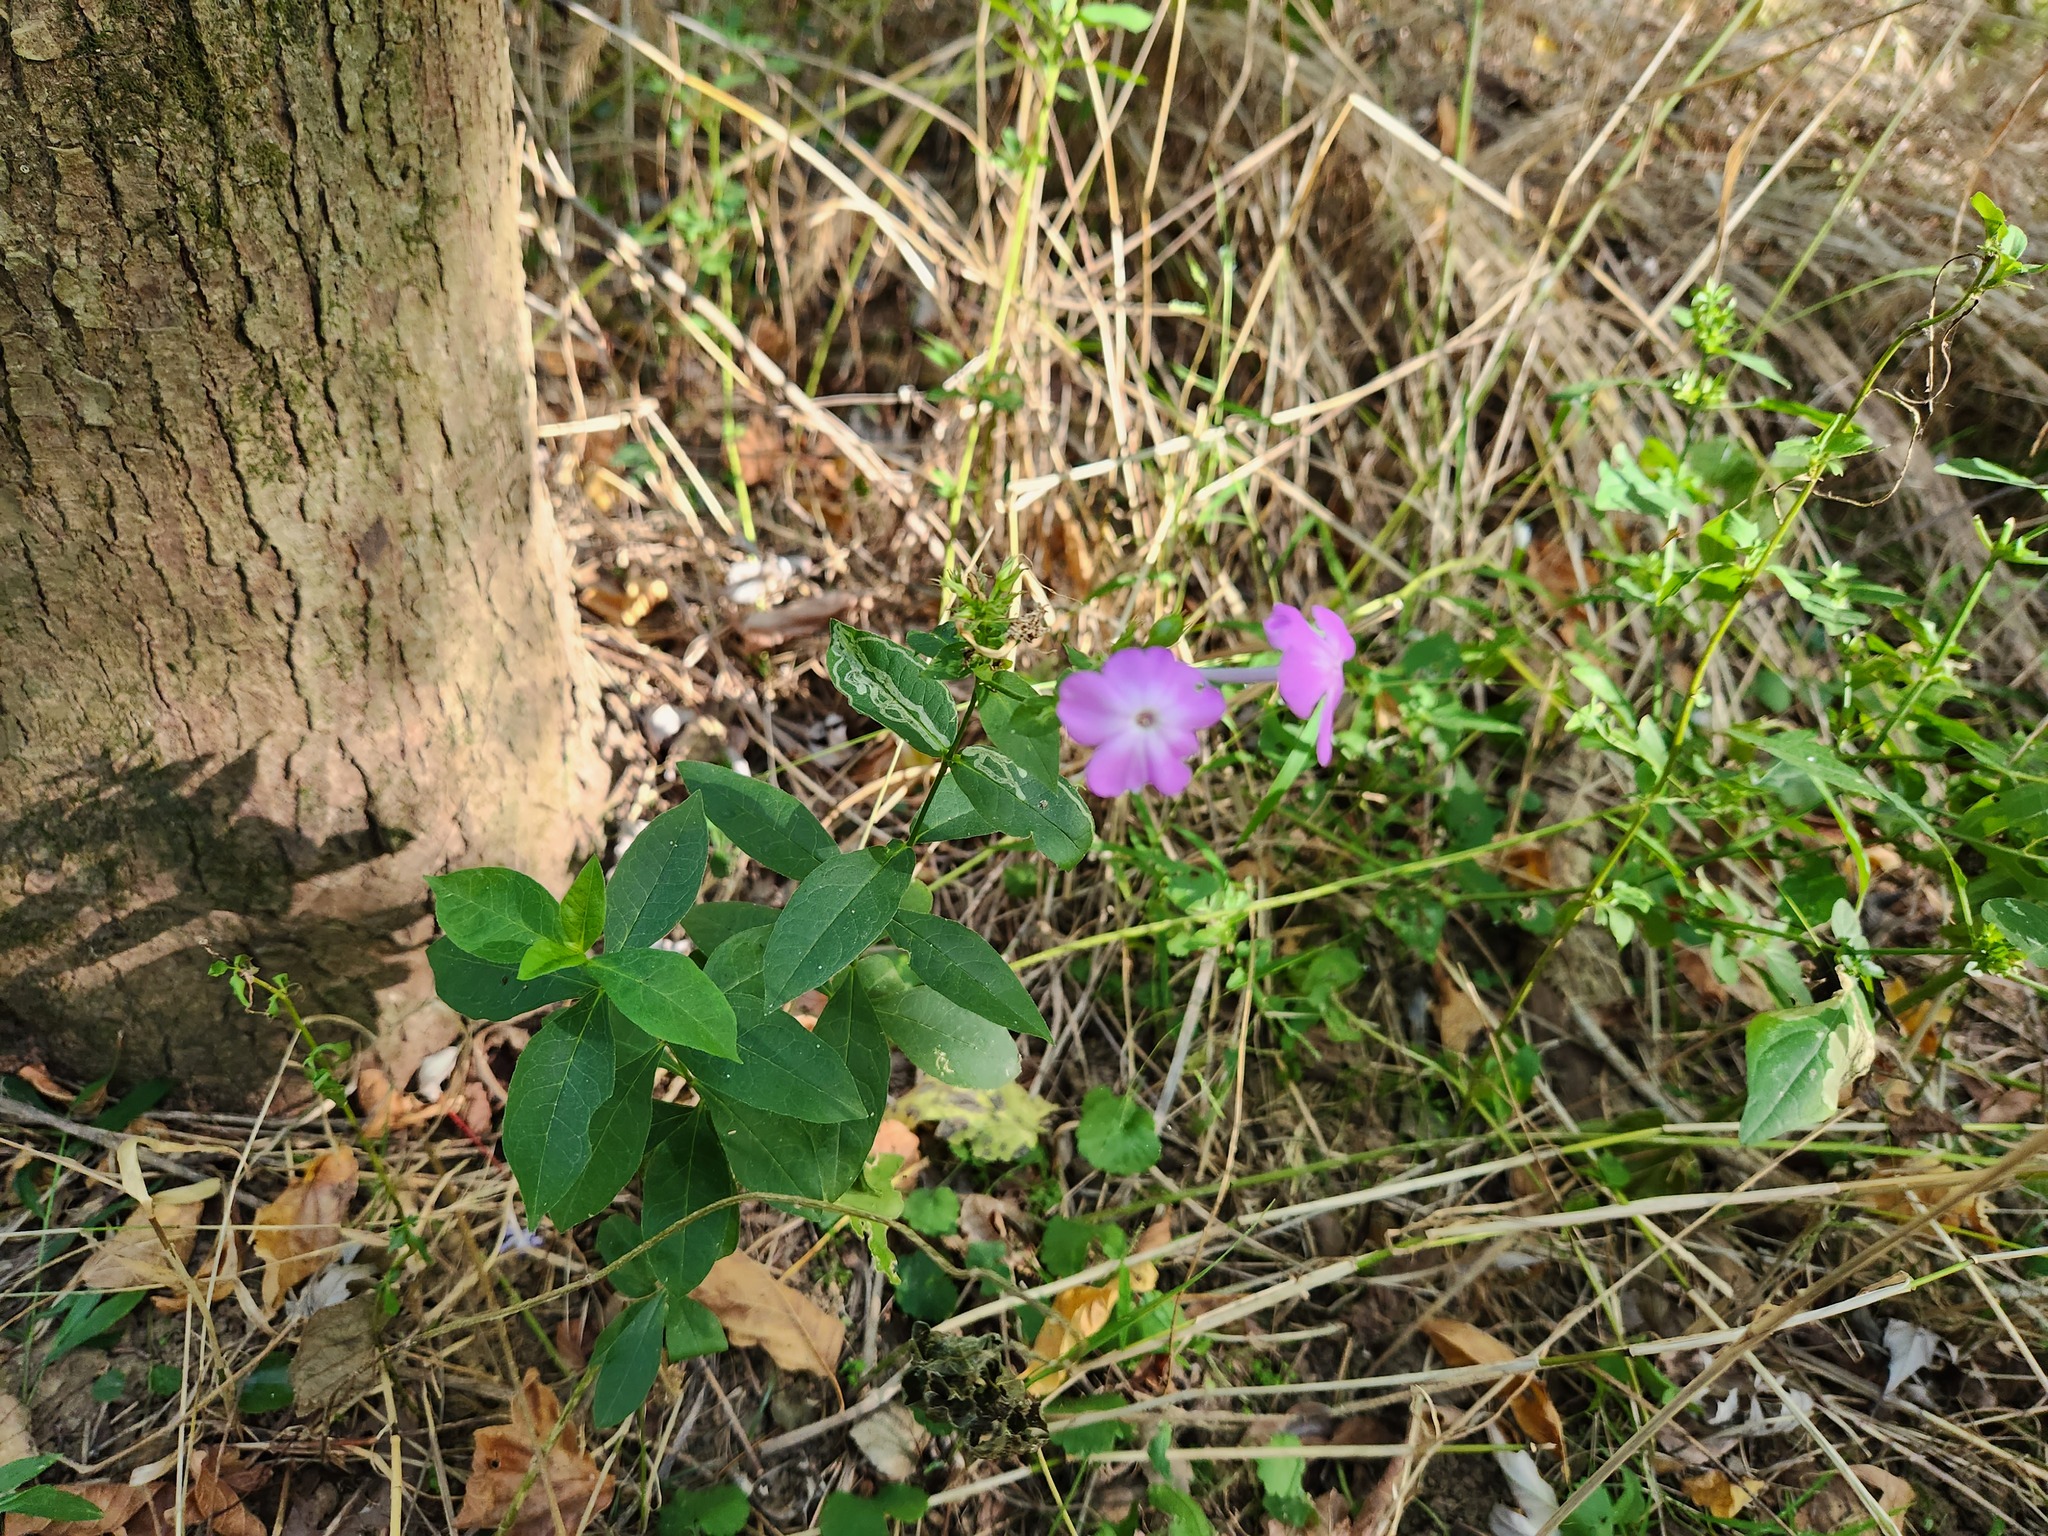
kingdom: Plantae
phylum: Tracheophyta
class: Magnoliopsida
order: Ericales
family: Polemoniaceae
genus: Phlox
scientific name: Phlox paniculata
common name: Fall phlox
